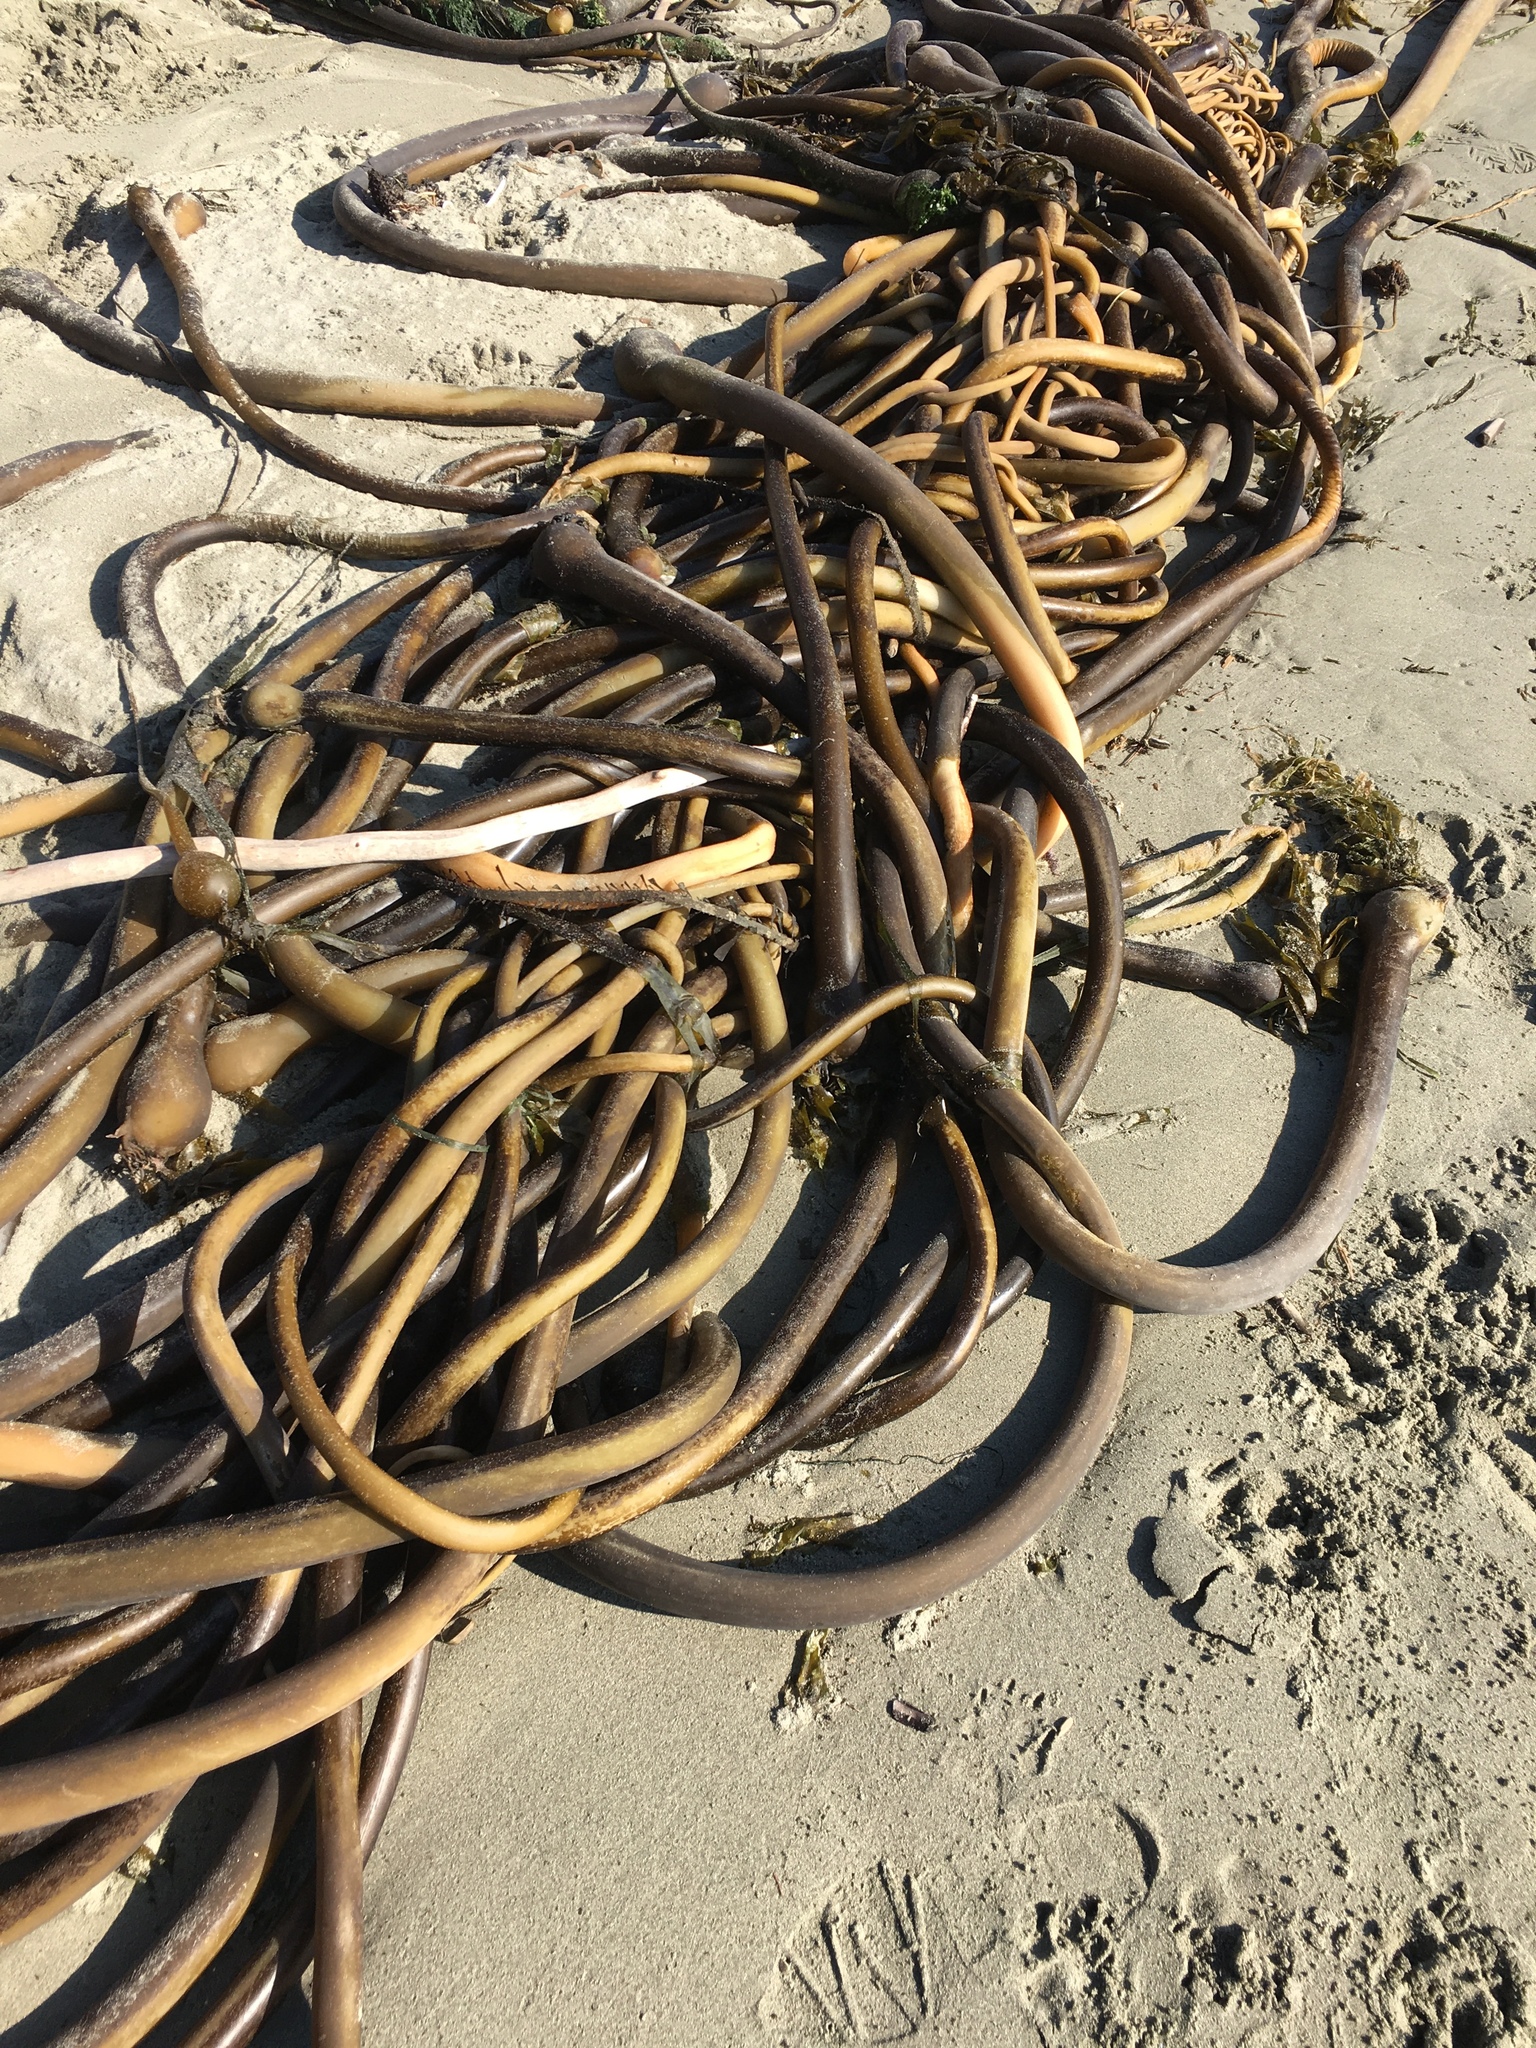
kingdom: Chromista
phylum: Ochrophyta
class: Phaeophyceae
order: Laminariales
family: Laminariaceae
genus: Nereocystis
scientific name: Nereocystis luetkeana
